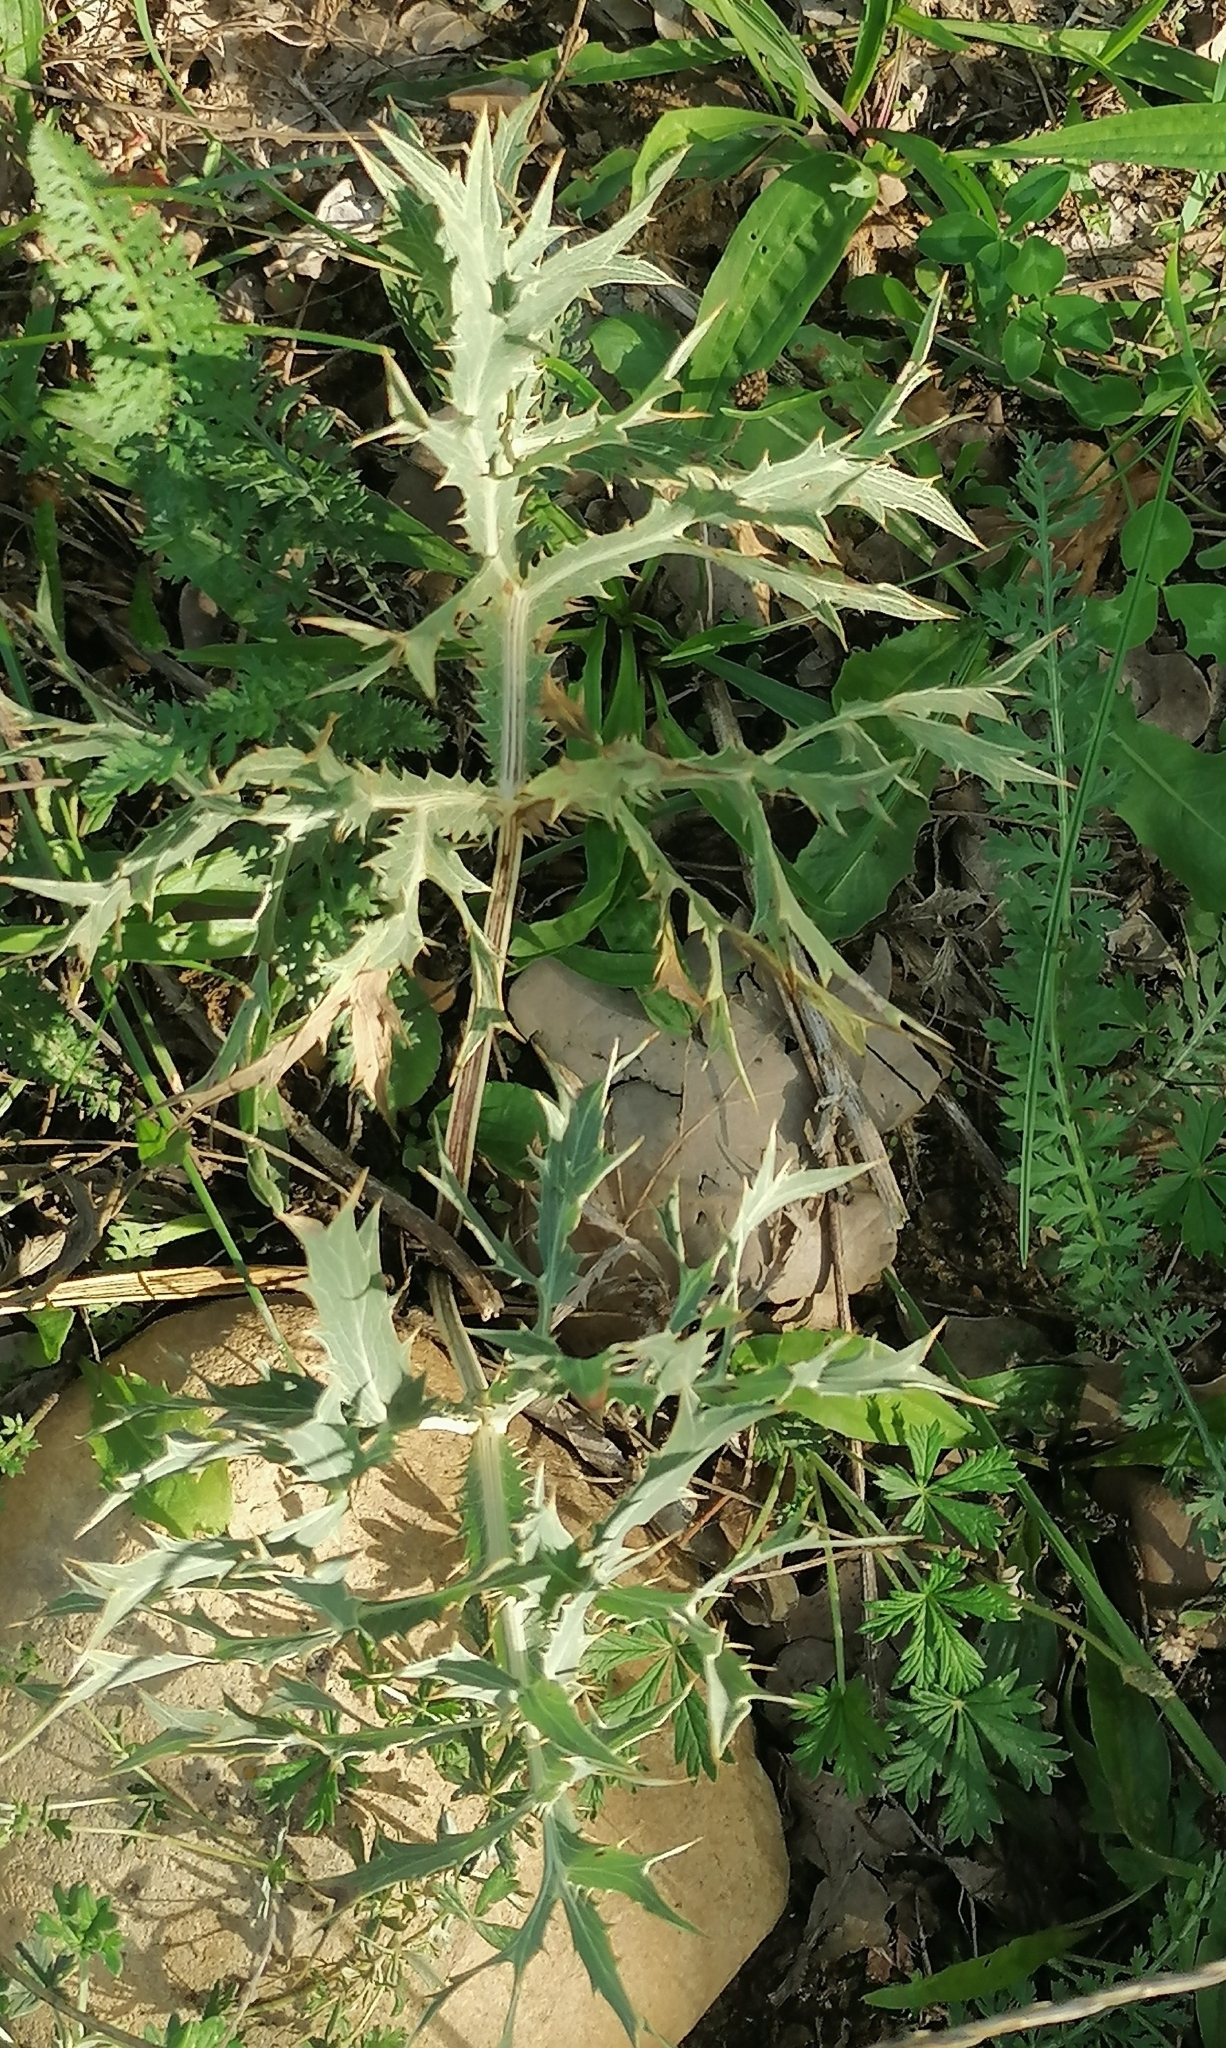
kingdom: Plantae
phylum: Tracheophyta
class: Magnoliopsida
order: Apiales
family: Apiaceae
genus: Eryngium
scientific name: Eryngium campestre
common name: Field eryngo
